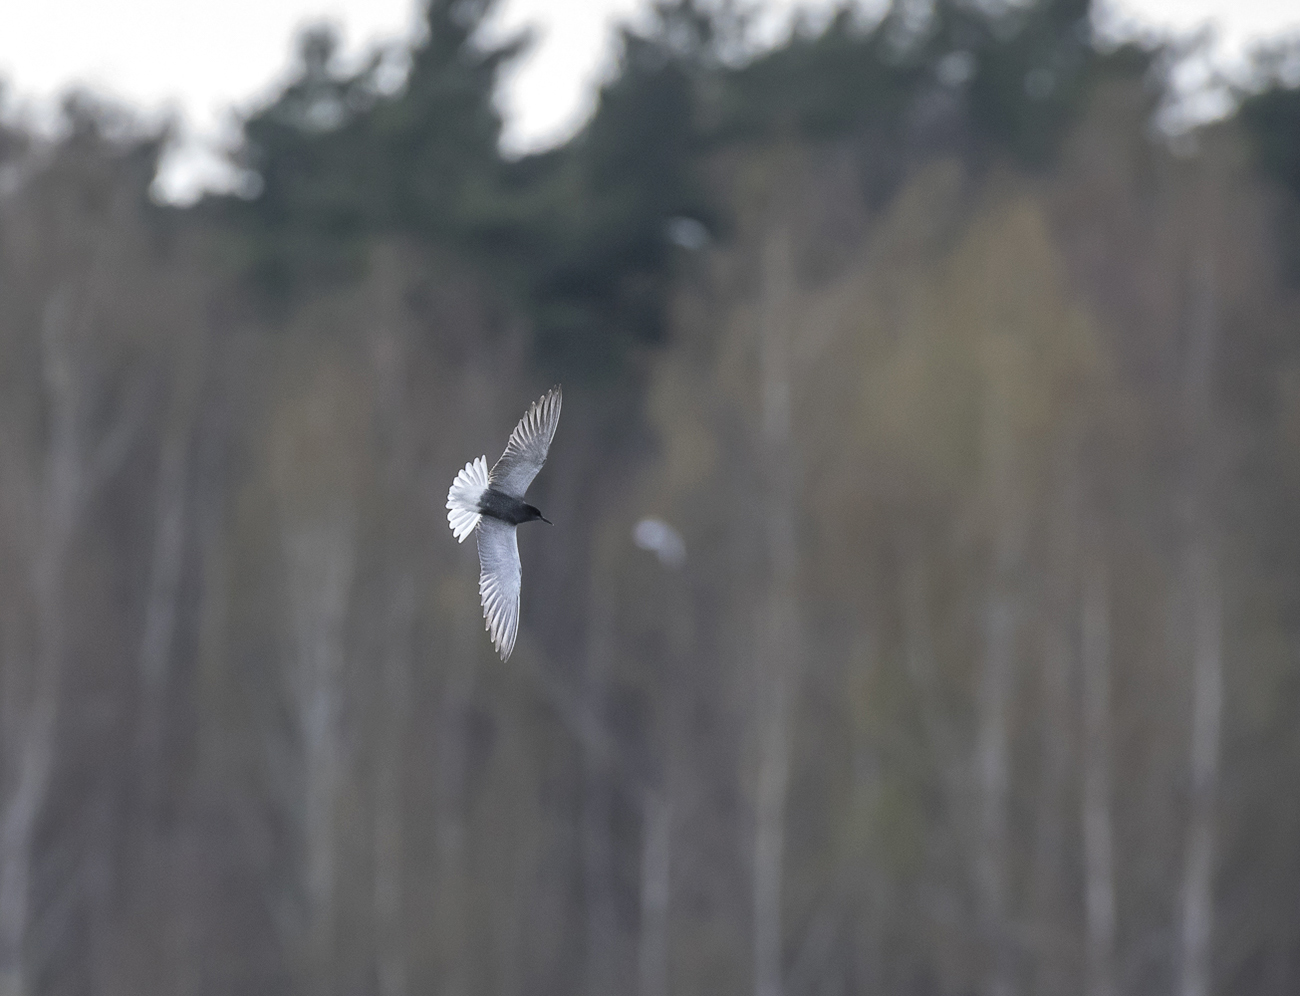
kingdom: Animalia
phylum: Chordata
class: Aves
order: Charadriiformes
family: Laridae
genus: Chlidonias
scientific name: Chlidonias niger
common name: Black tern
